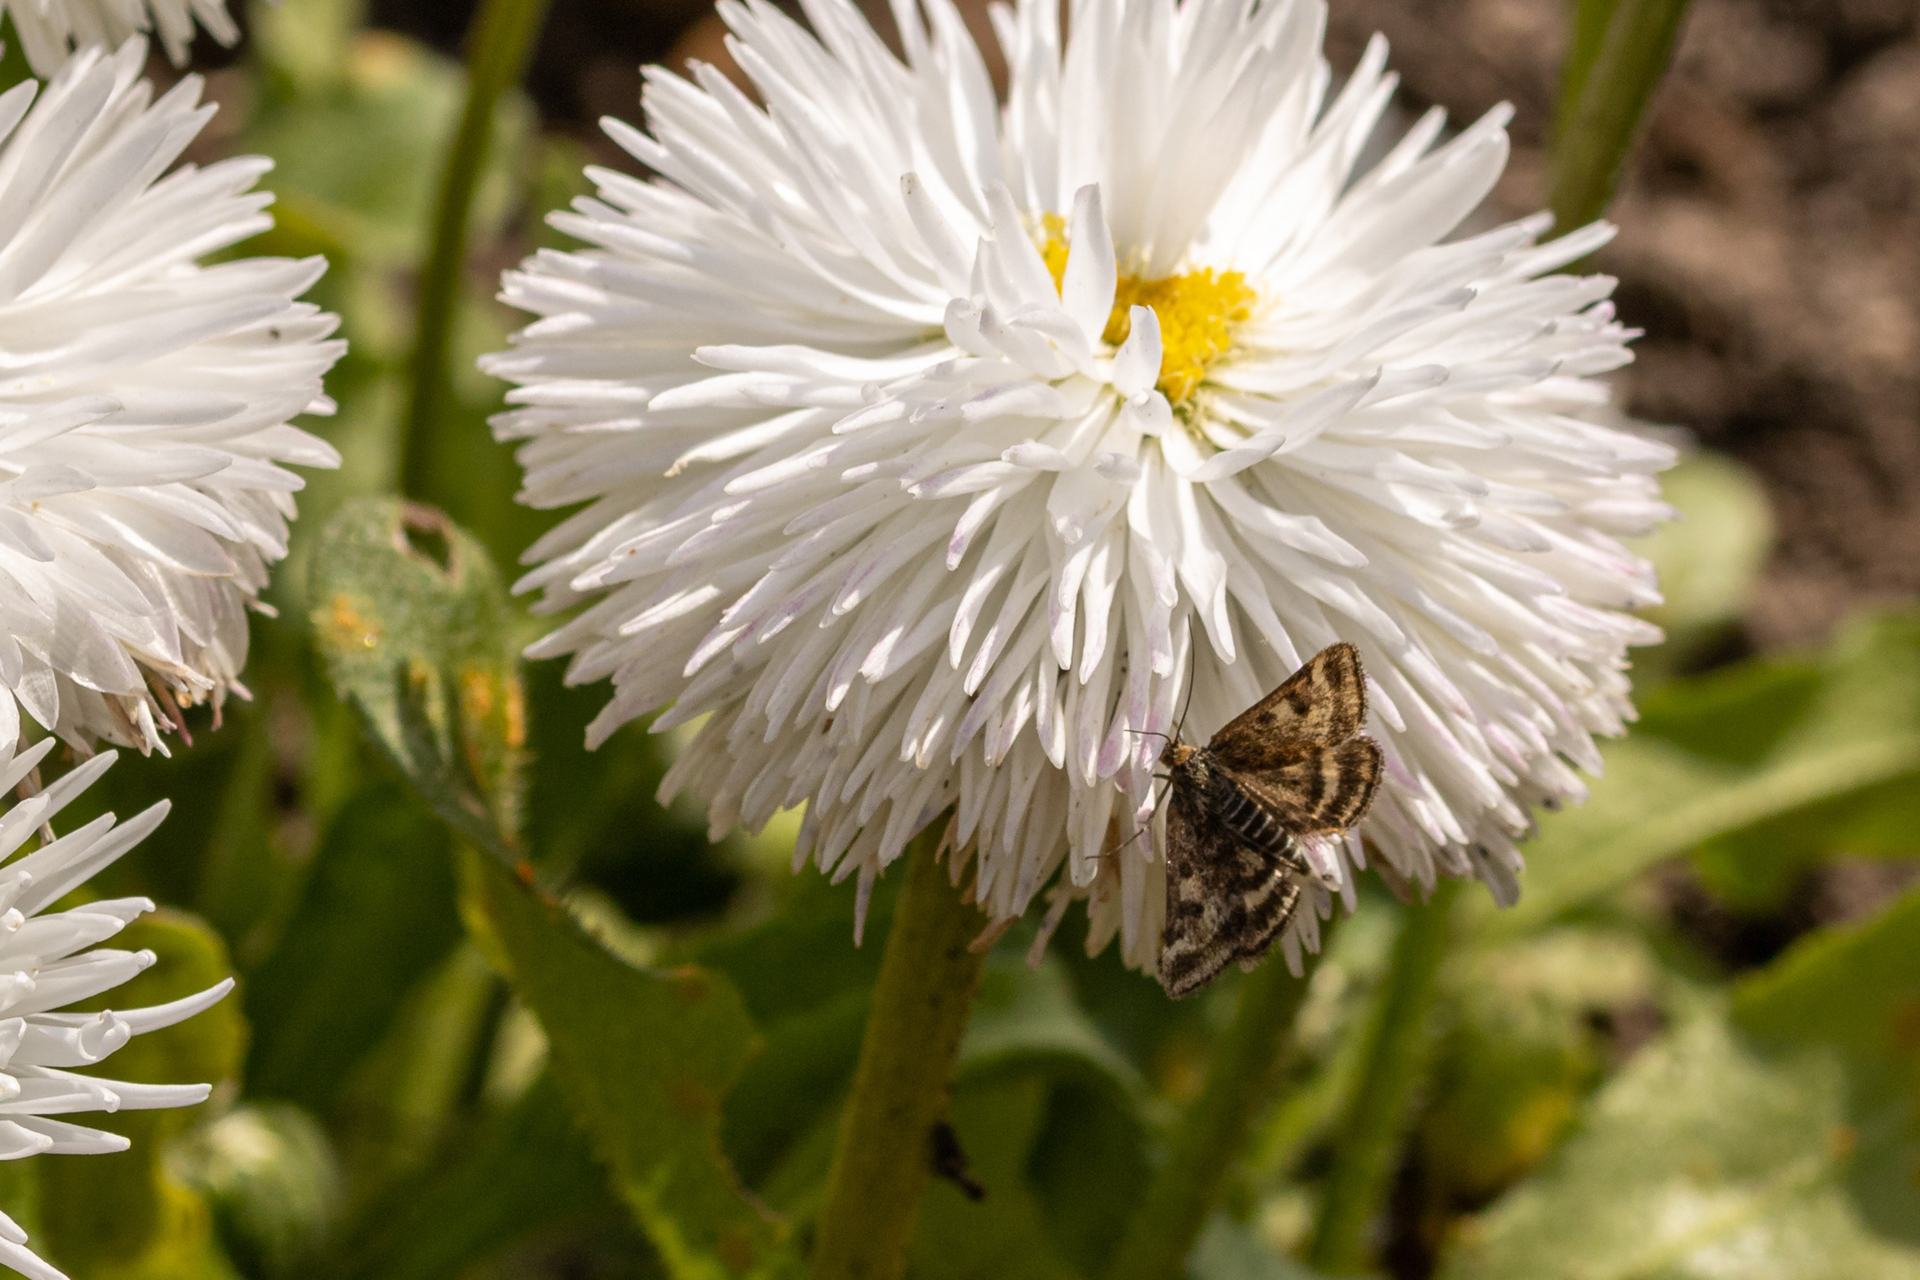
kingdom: Animalia
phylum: Arthropoda
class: Insecta
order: Lepidoptera
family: Crambidae
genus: Pyrausta
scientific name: Pyrausta despicata
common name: Straw-barred pearl
